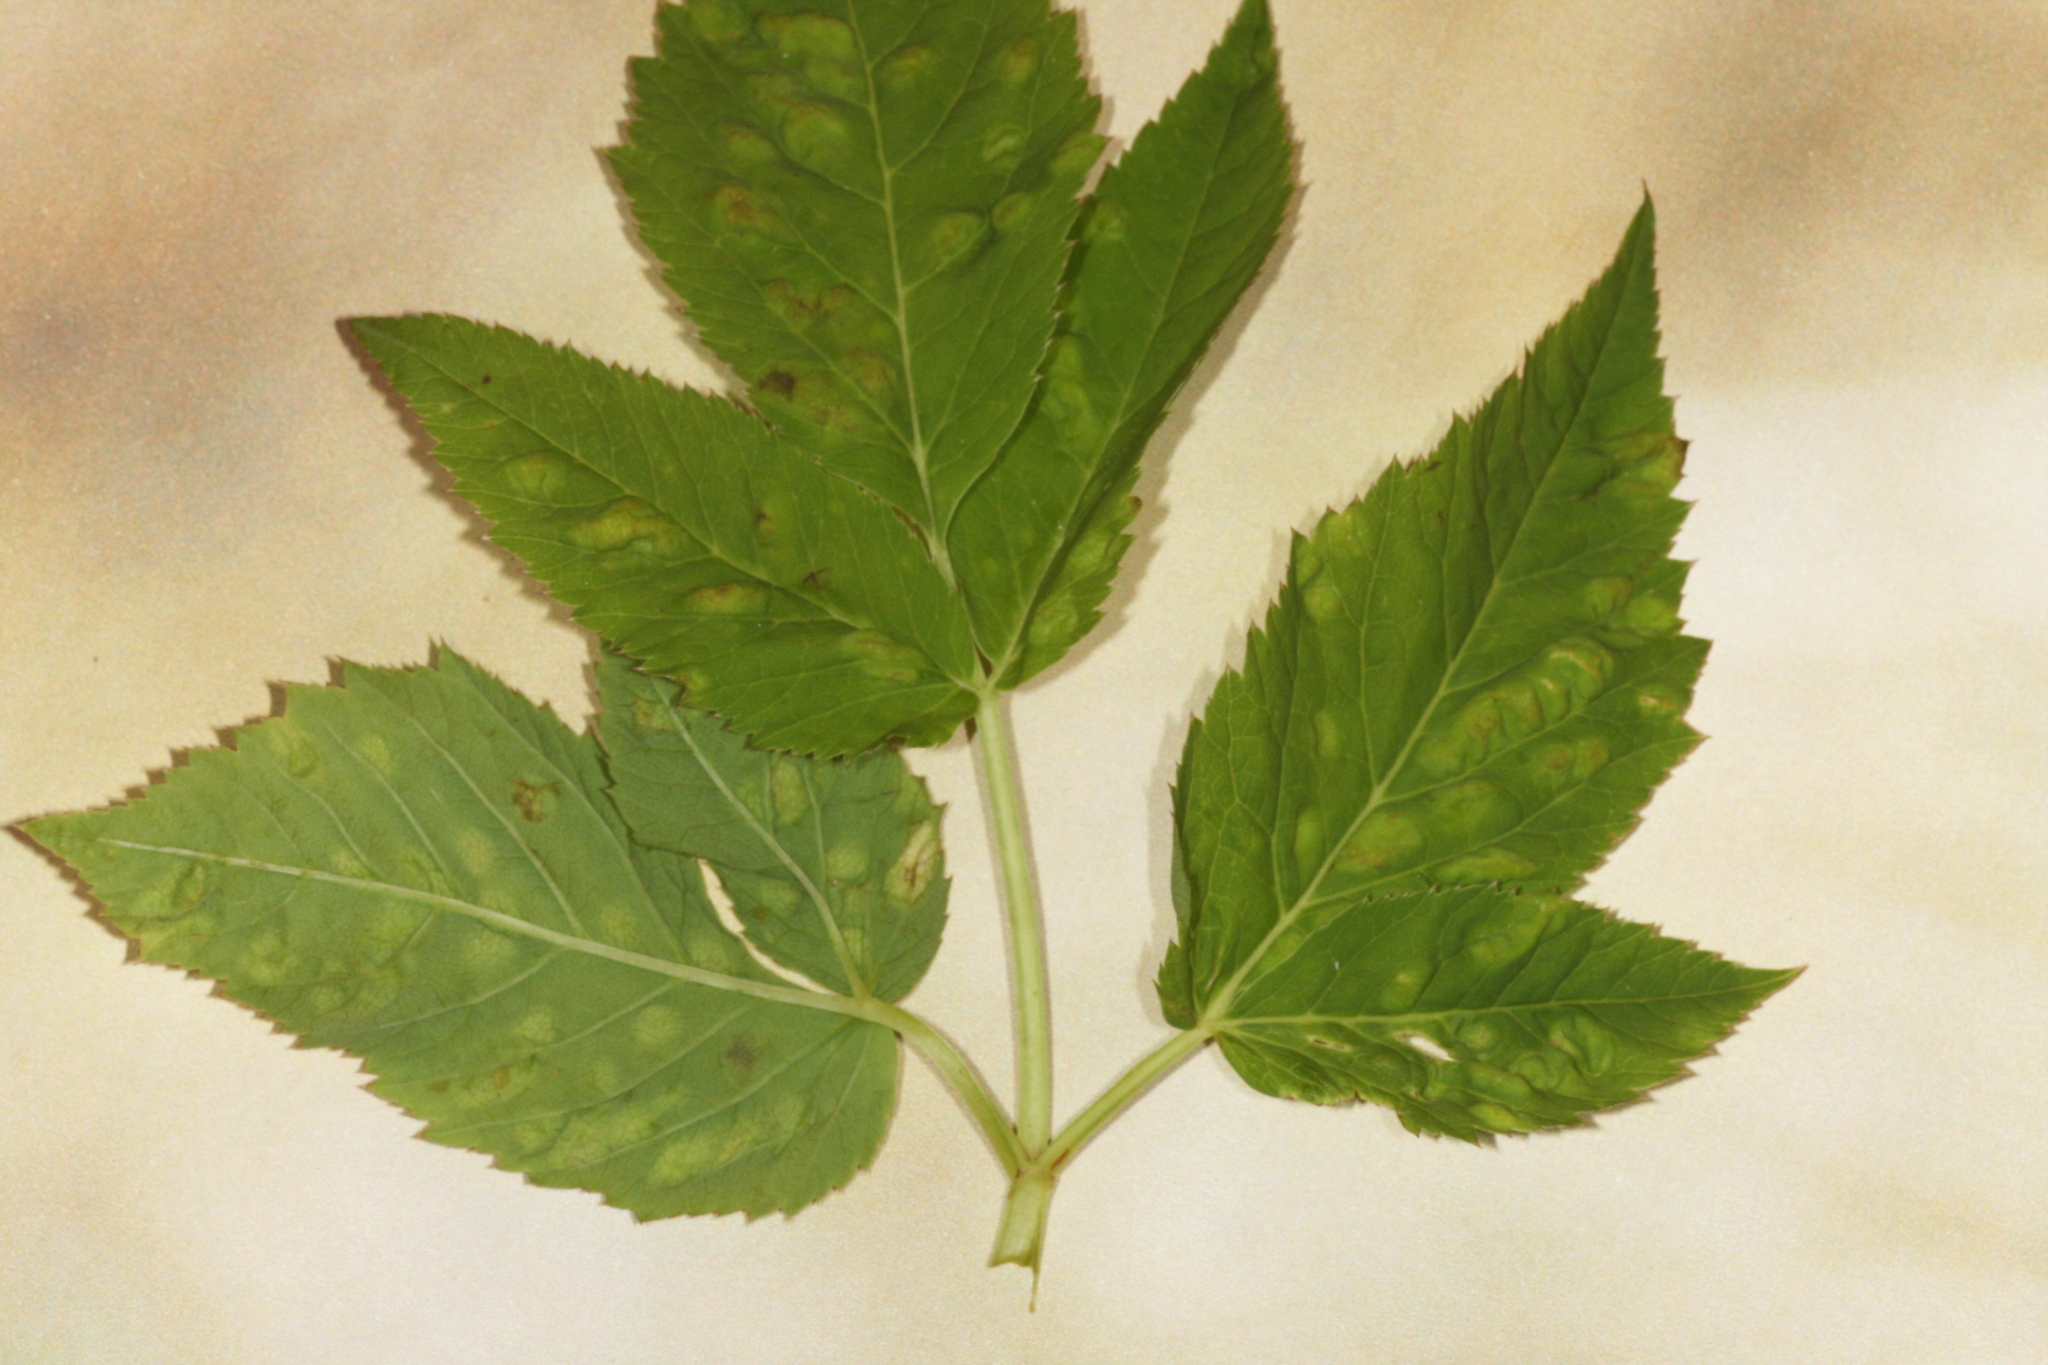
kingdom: Animalia
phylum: Arthropoda
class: Insecta
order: Hemiptera
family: Triozidae
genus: Trioza
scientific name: Trioza flavipennis
